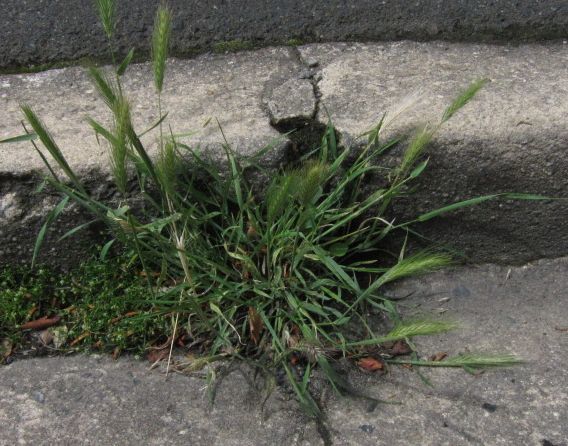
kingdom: Plantae
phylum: Tracheophyta
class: Liliopsida
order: Poales
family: Poaceae
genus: Hordeum
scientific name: Hordeum murinum
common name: Wall barley
